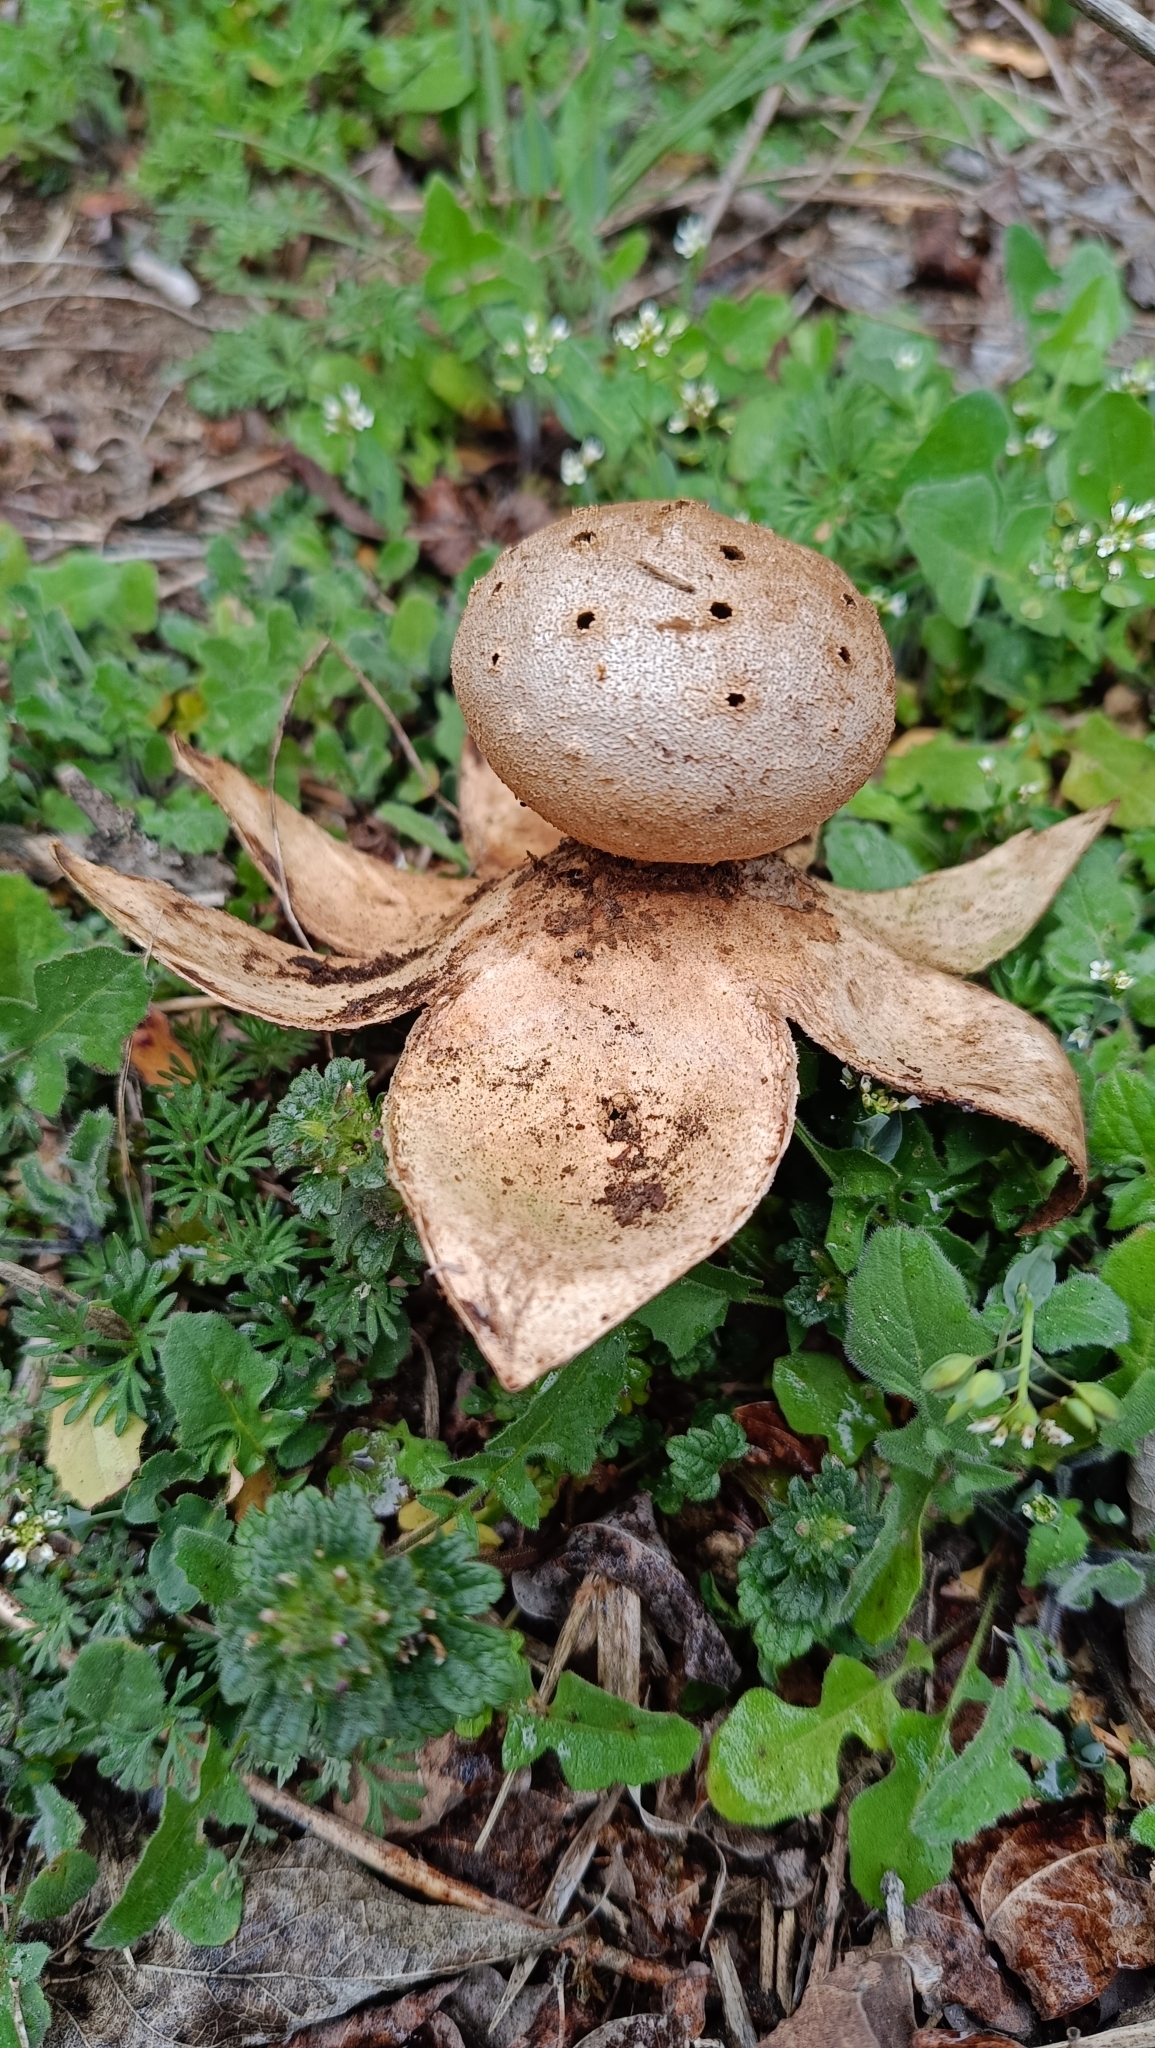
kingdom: Fungi
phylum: Basidiomycota
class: Agaricomycetes
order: Geastrales
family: Geastraceae
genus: Myriostoma
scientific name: Myriostoma coliforme
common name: Pepper pot
